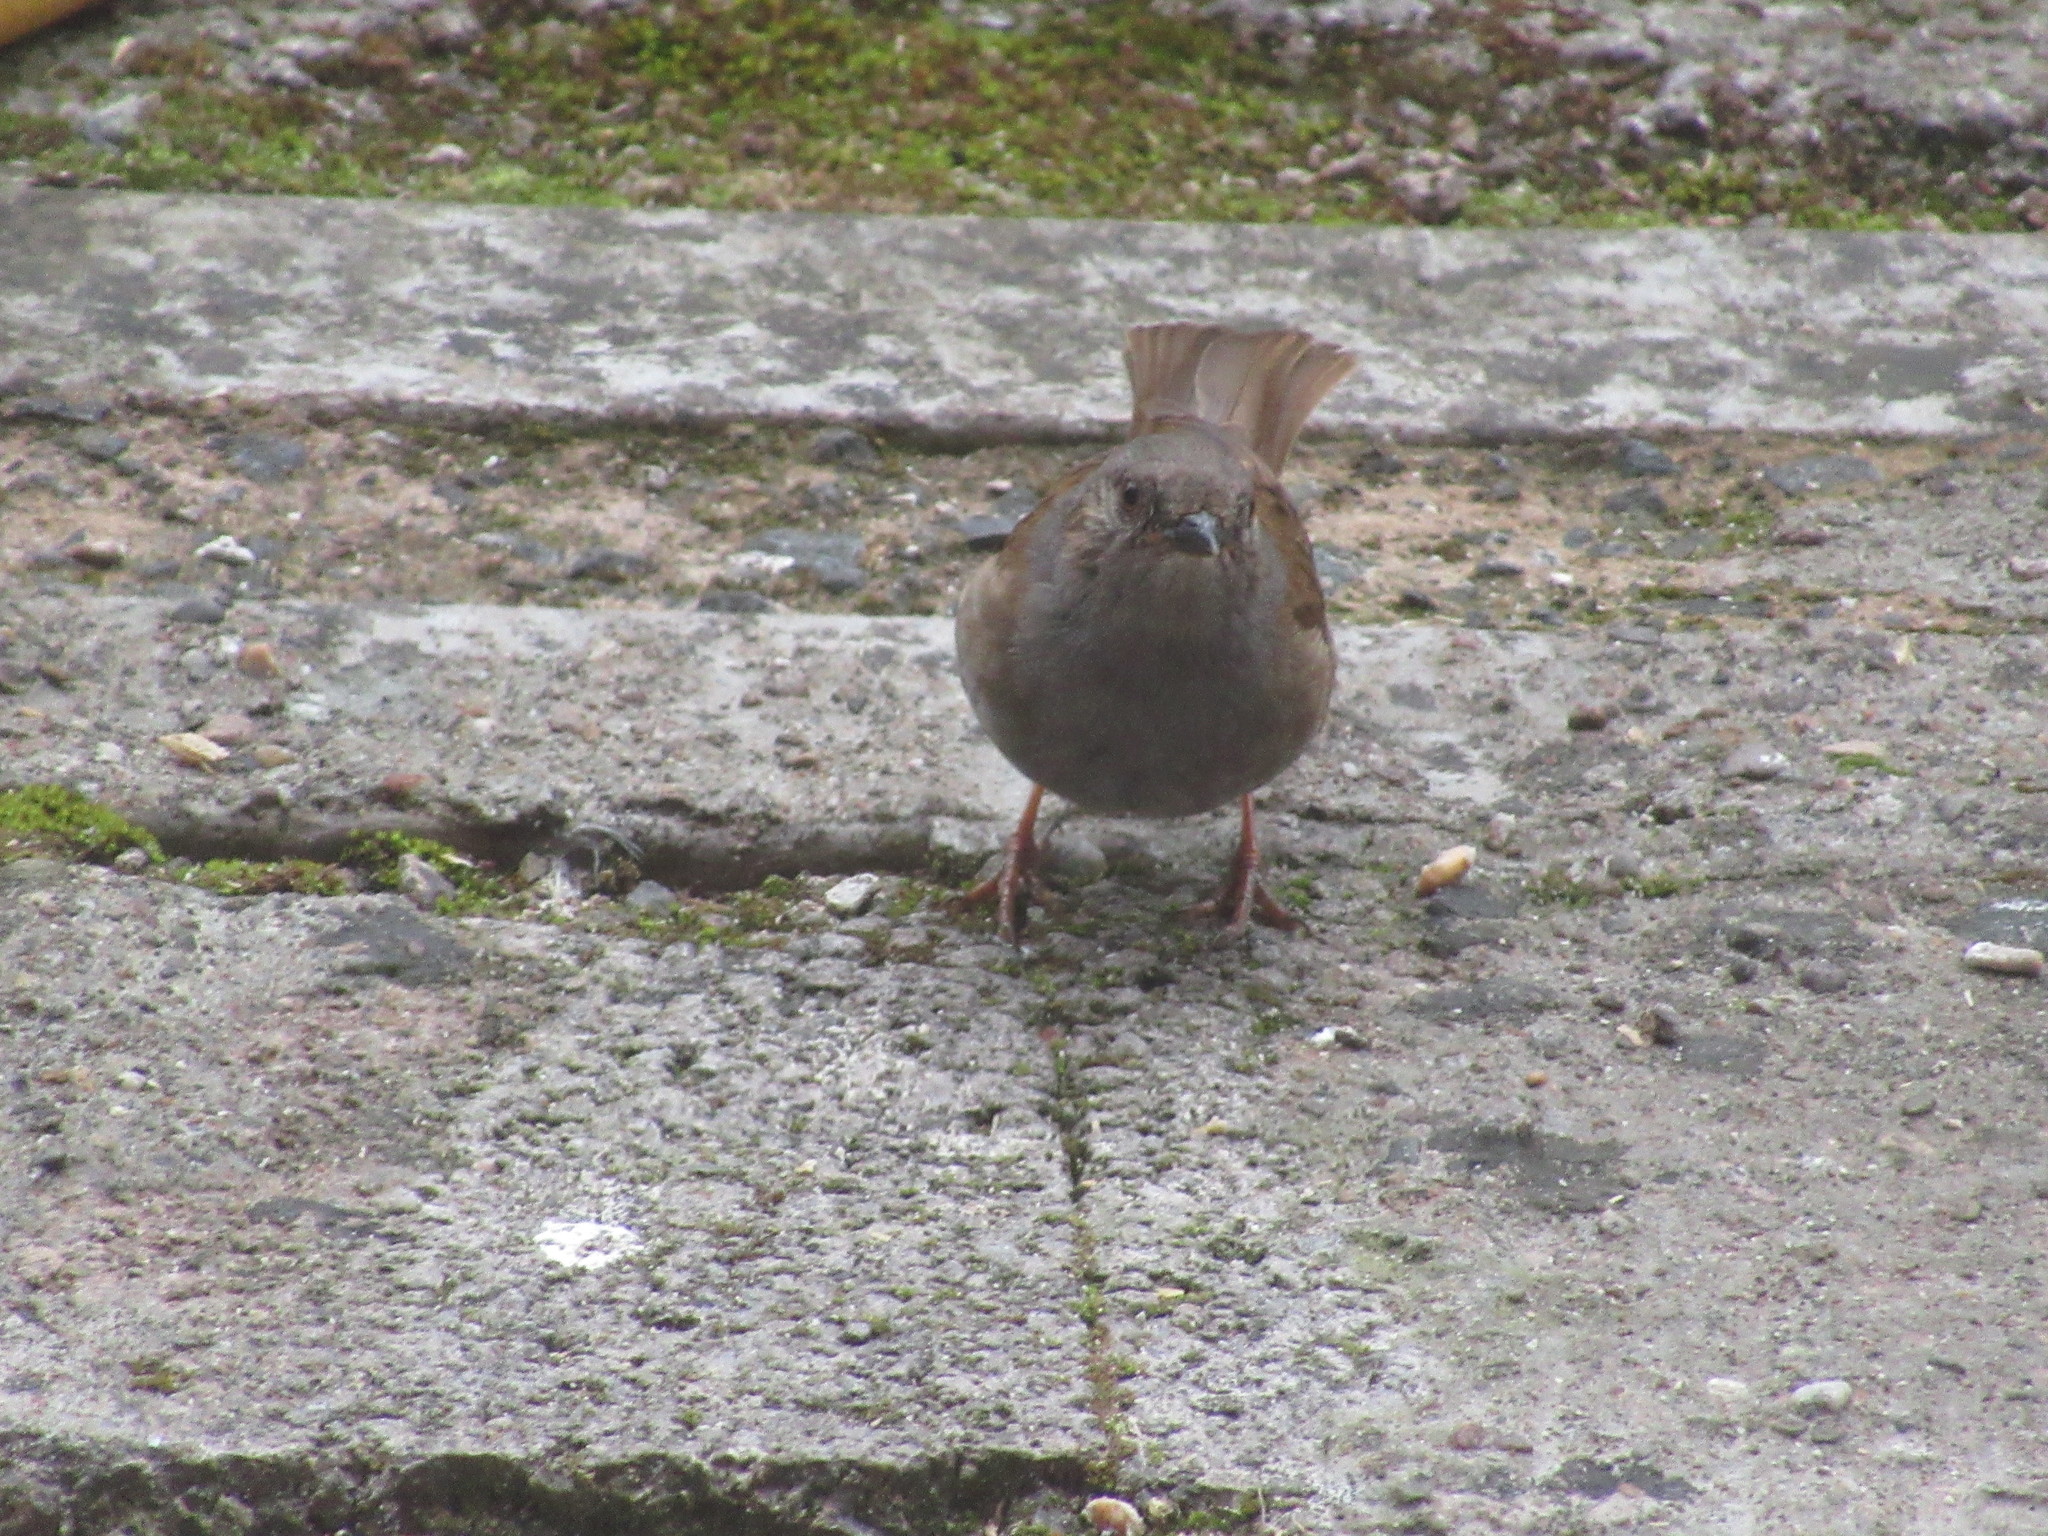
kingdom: Animalia
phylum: Chordata
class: Aves
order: Passeriformes
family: Prunellidae
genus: Prunella
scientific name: Prunella modularis
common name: Dunnock
